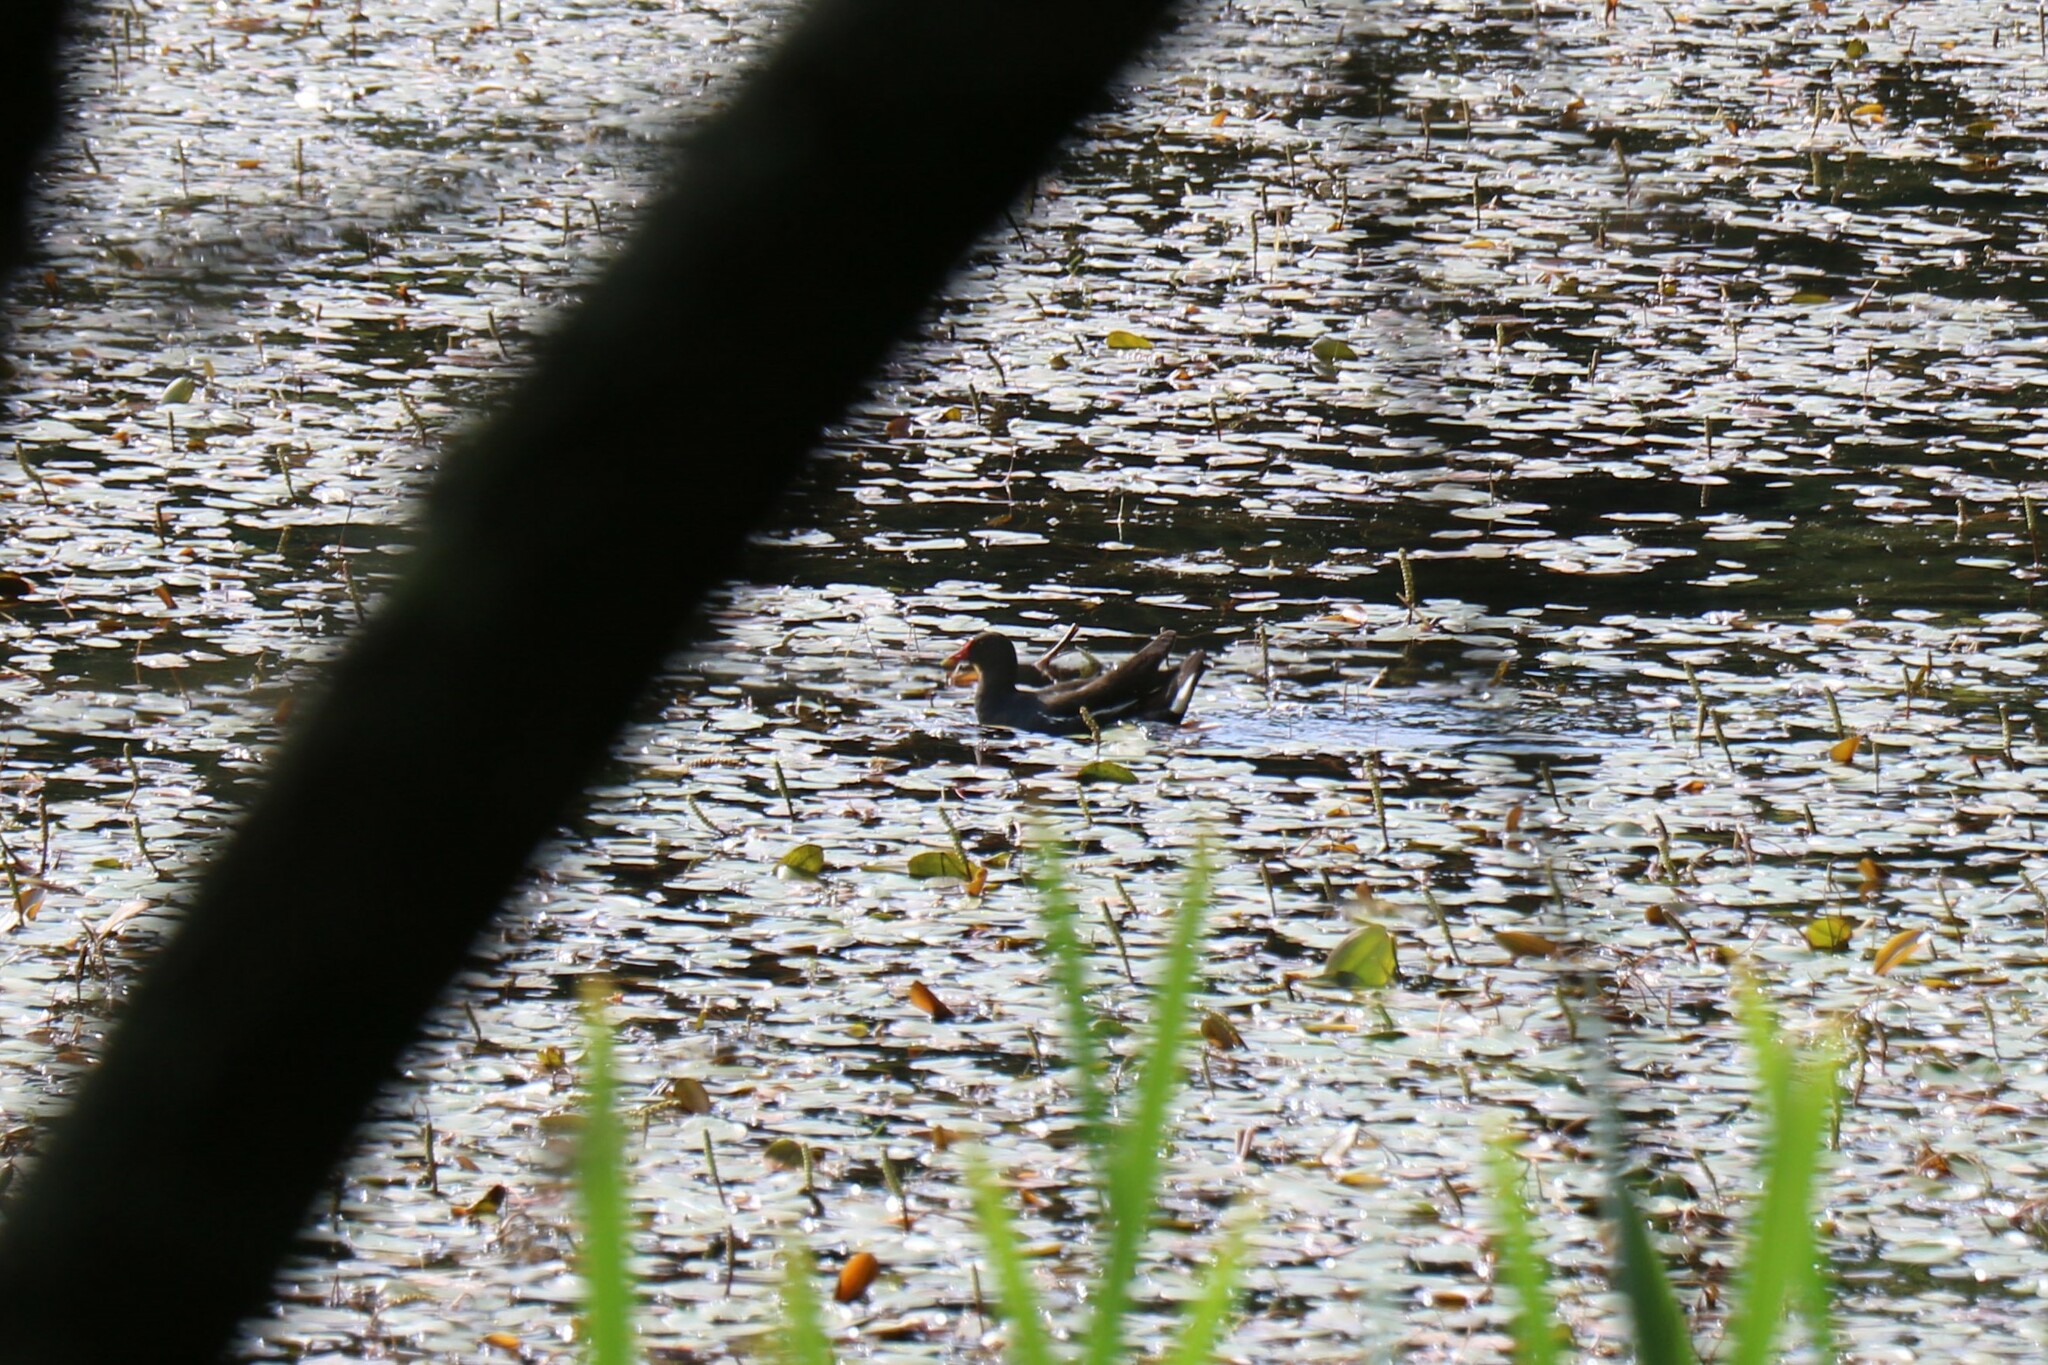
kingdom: Animalia
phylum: Chordata
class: Aves
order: Gruiformes
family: Rallidae
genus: Gallinula
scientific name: Gallinula chloropus
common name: Common moorhen
